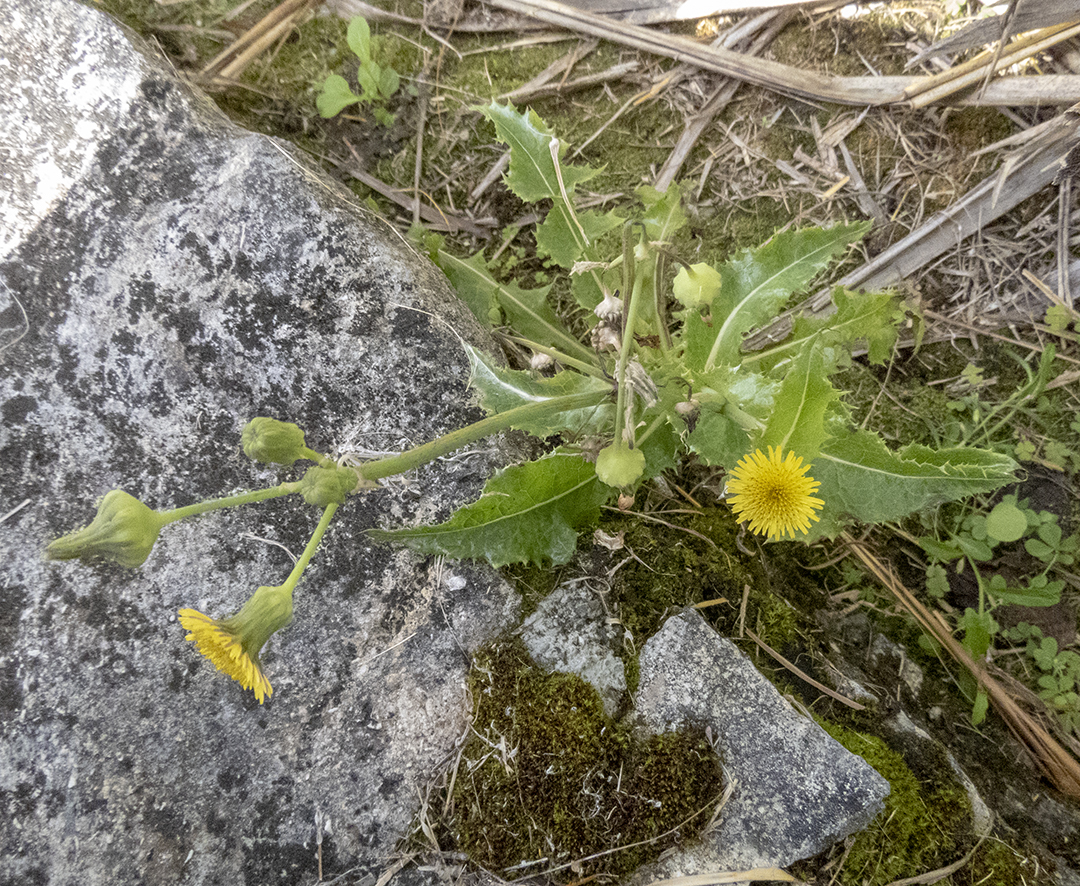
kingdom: Plantae
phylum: Tracheophyta
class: Magnoliopsida
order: Asterales
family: Asteraceae
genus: Sonchus
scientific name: Sonchus oleraceus
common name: Common sowthistle
